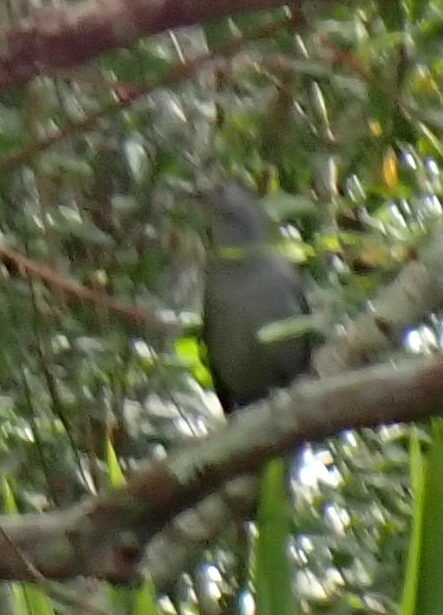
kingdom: Animalia
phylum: Chordata
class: Aves
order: Passeriformes
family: Mimidae
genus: Dumetella
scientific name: Dumetella carolinensis
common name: Gray catbird
